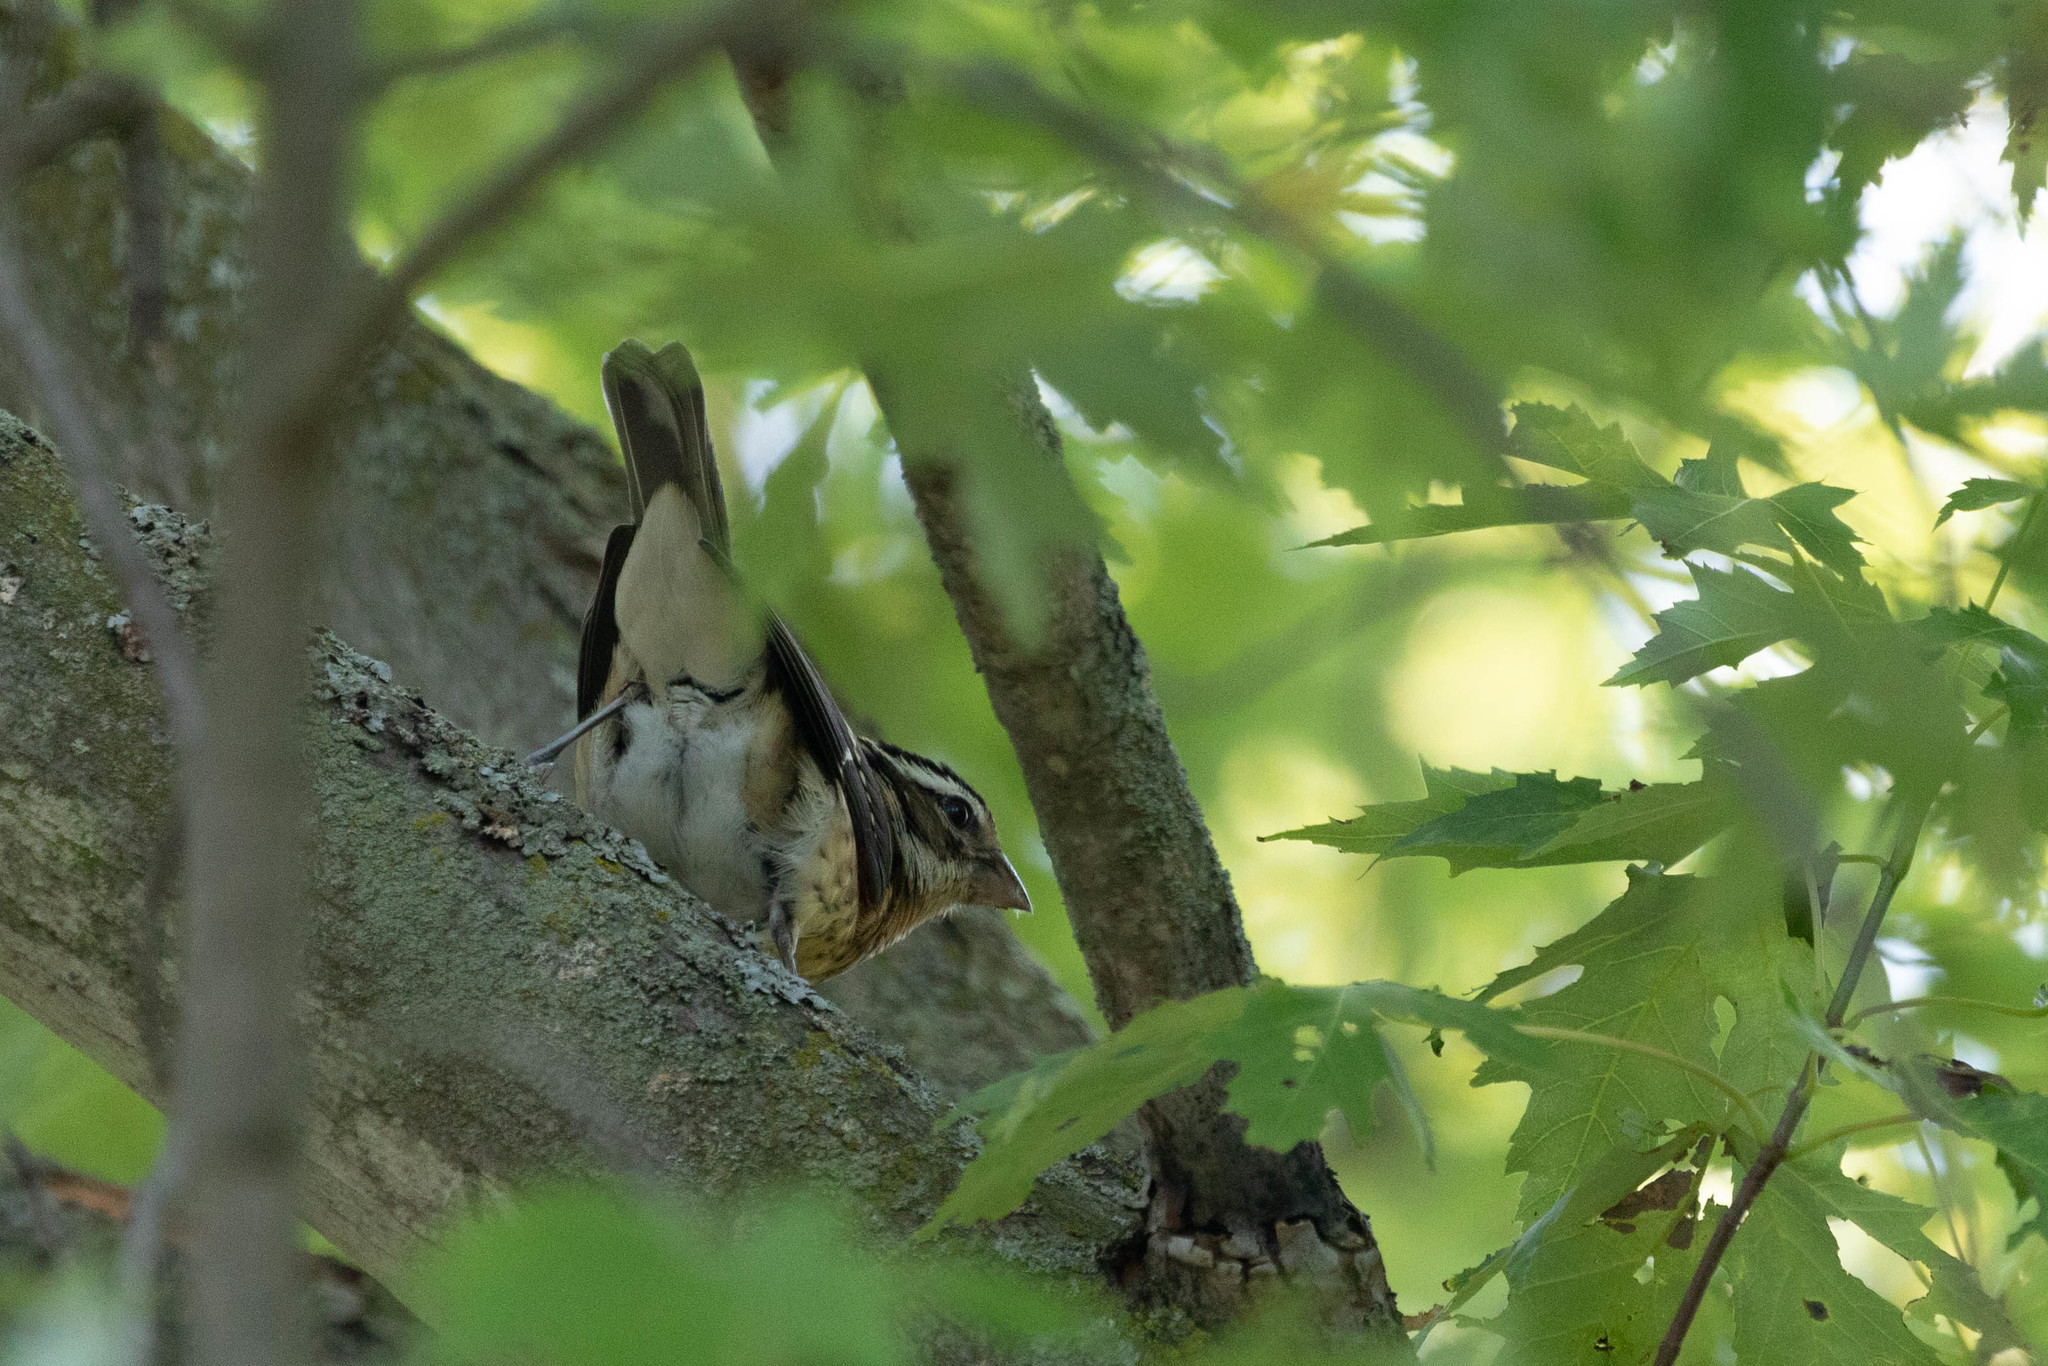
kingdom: Animalia
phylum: Chordata
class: Aves
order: Passeriformes
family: Cardinalidae
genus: Pheucticus
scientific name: Pheucticus ludovicianus
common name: Rose-breasted grosbeak
